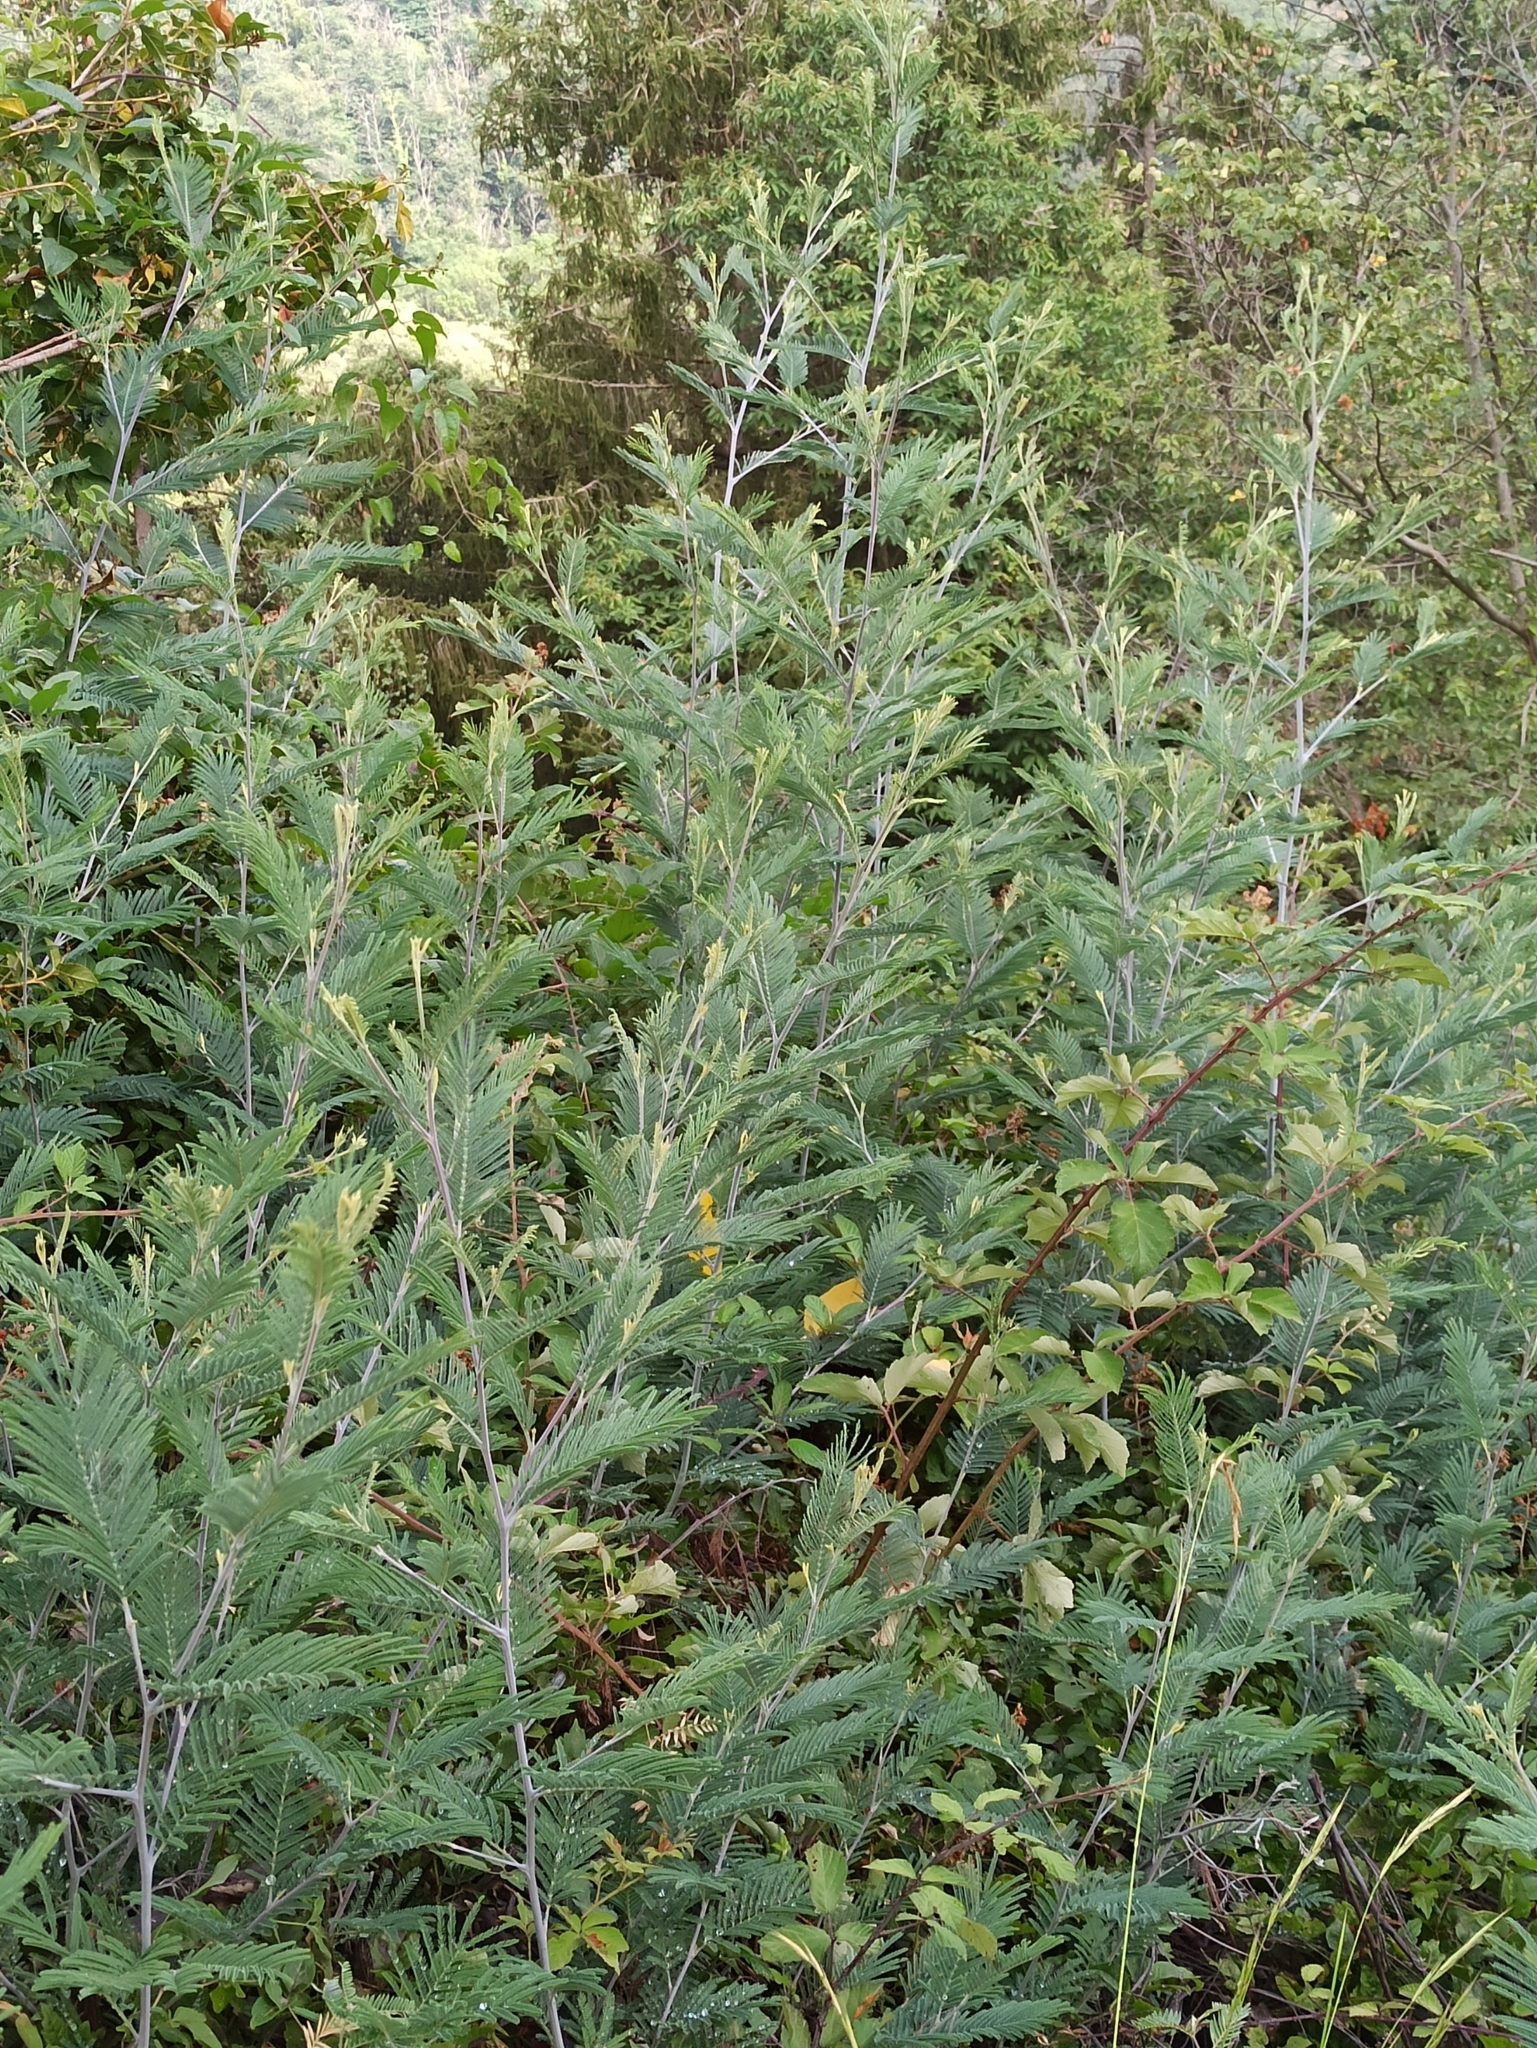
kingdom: Plantae
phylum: Tracheophyta
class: Magnoliopsida
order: Fabales
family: Fabaceae
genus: Acacia
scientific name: Acacia dealbata
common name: Silver wattle
